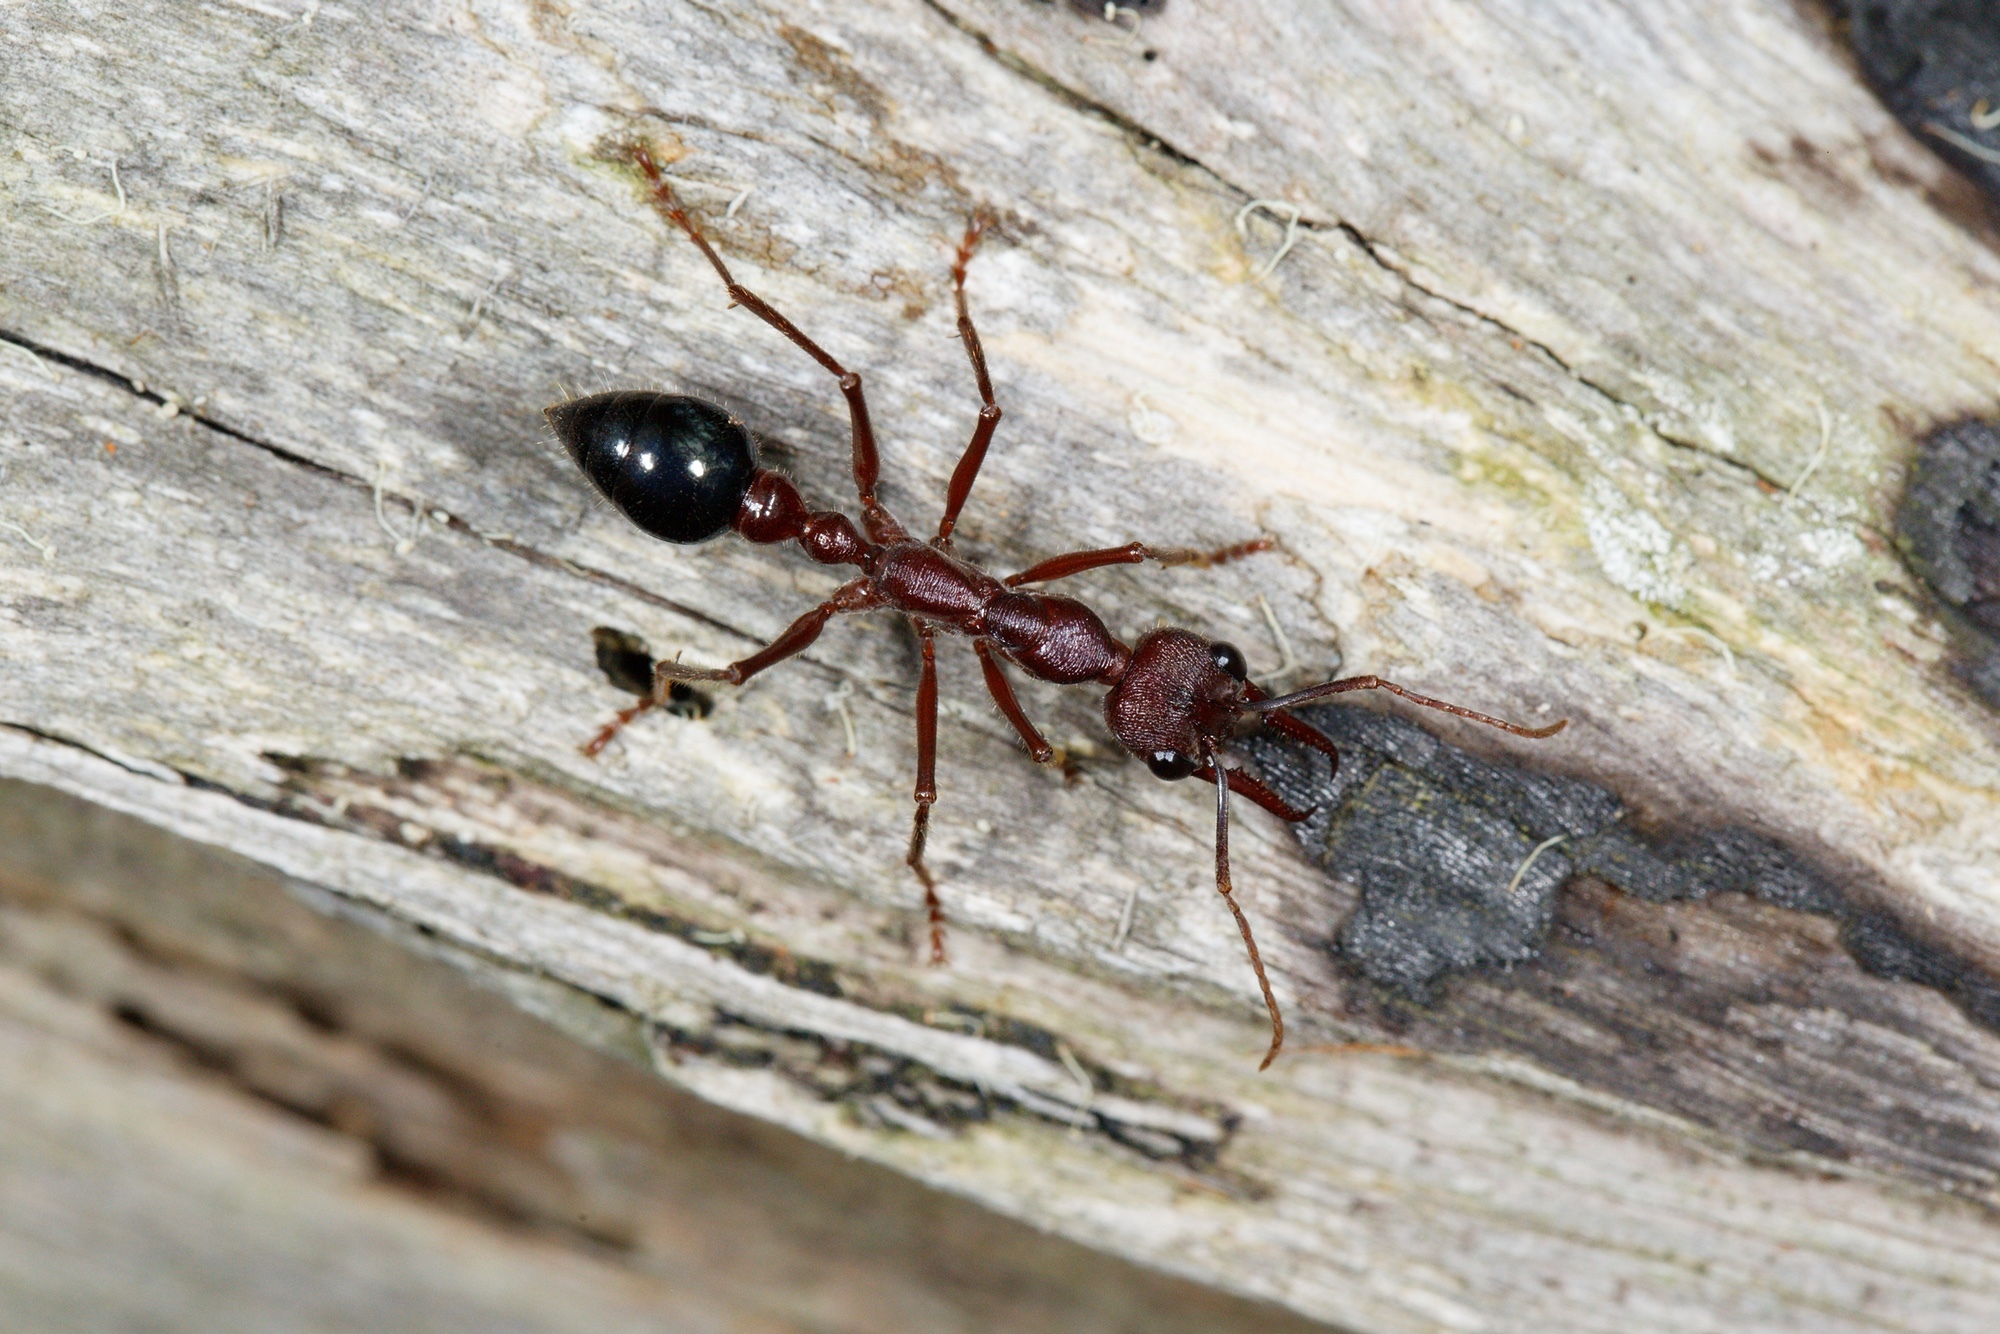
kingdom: Animalia
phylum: Arthropoda
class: Insecta
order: Hymenoptera
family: Formicidae
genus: Myrmecia
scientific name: Myrmecia forficata
